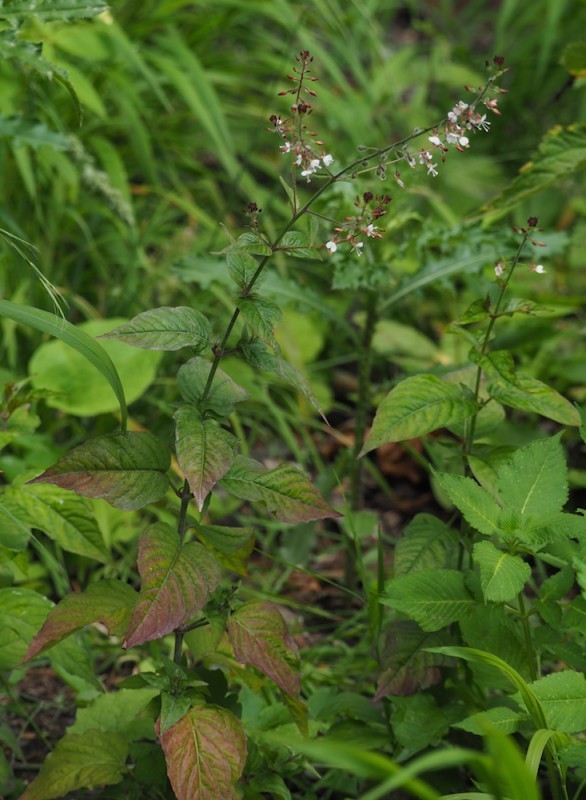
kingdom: Plantae
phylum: Tracheophyta
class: Magnoliopsida
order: Myrtales
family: Onagraceae
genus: Circaea
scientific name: Circaea lutetiana
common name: Enchanter's-nightshade
